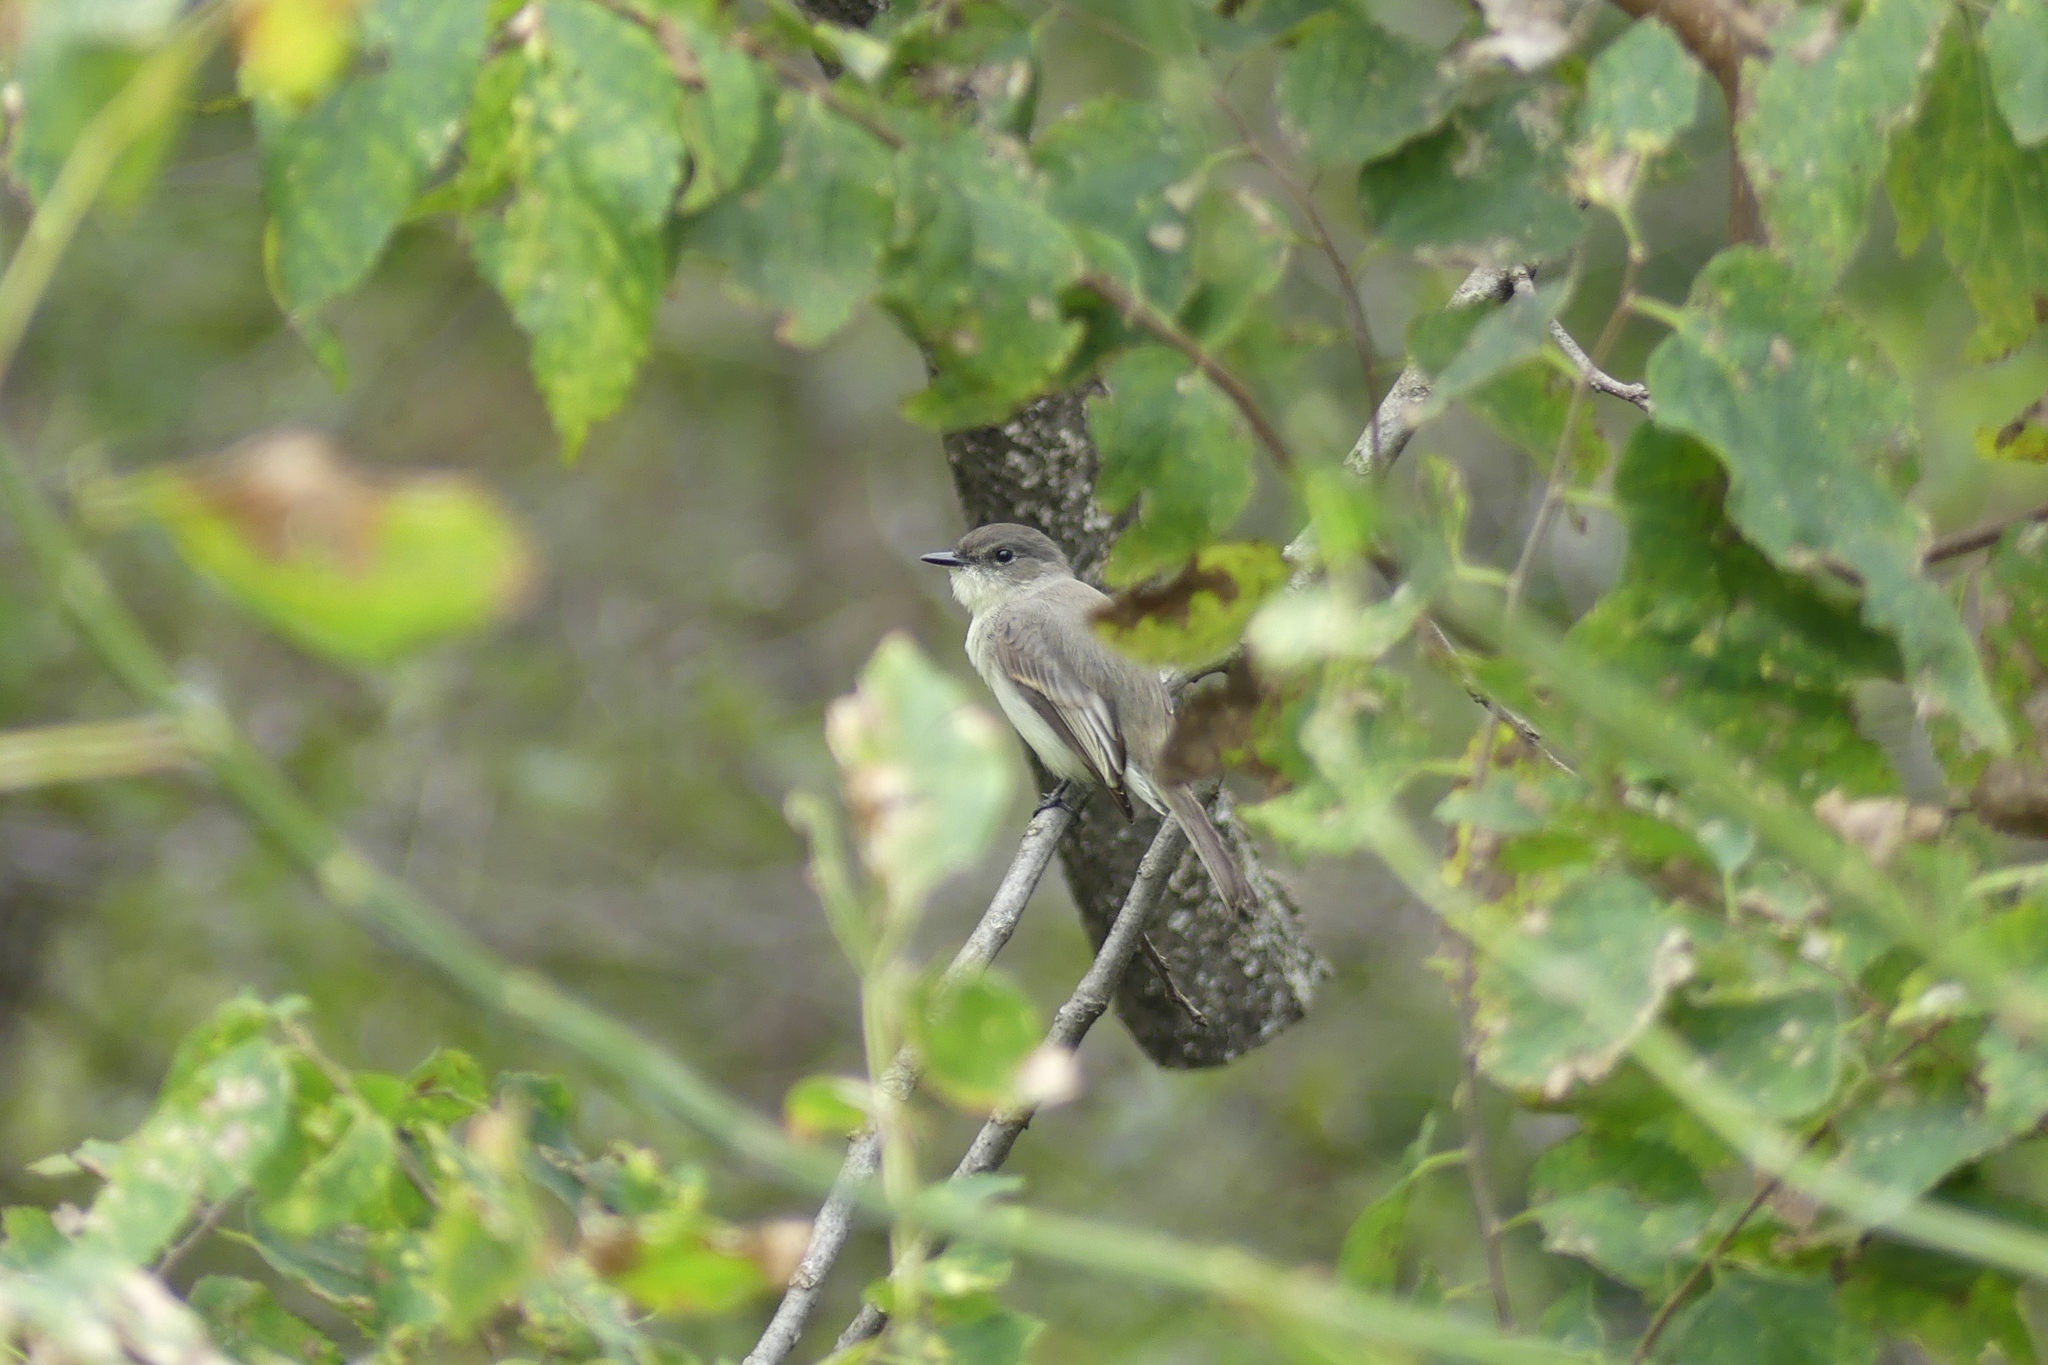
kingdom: Animalia
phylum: Chordata
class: Aves
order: Passeriformes
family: Tyrannidae
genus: Sayornis
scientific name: Sayornis phoebe
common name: Eastern phoebe
